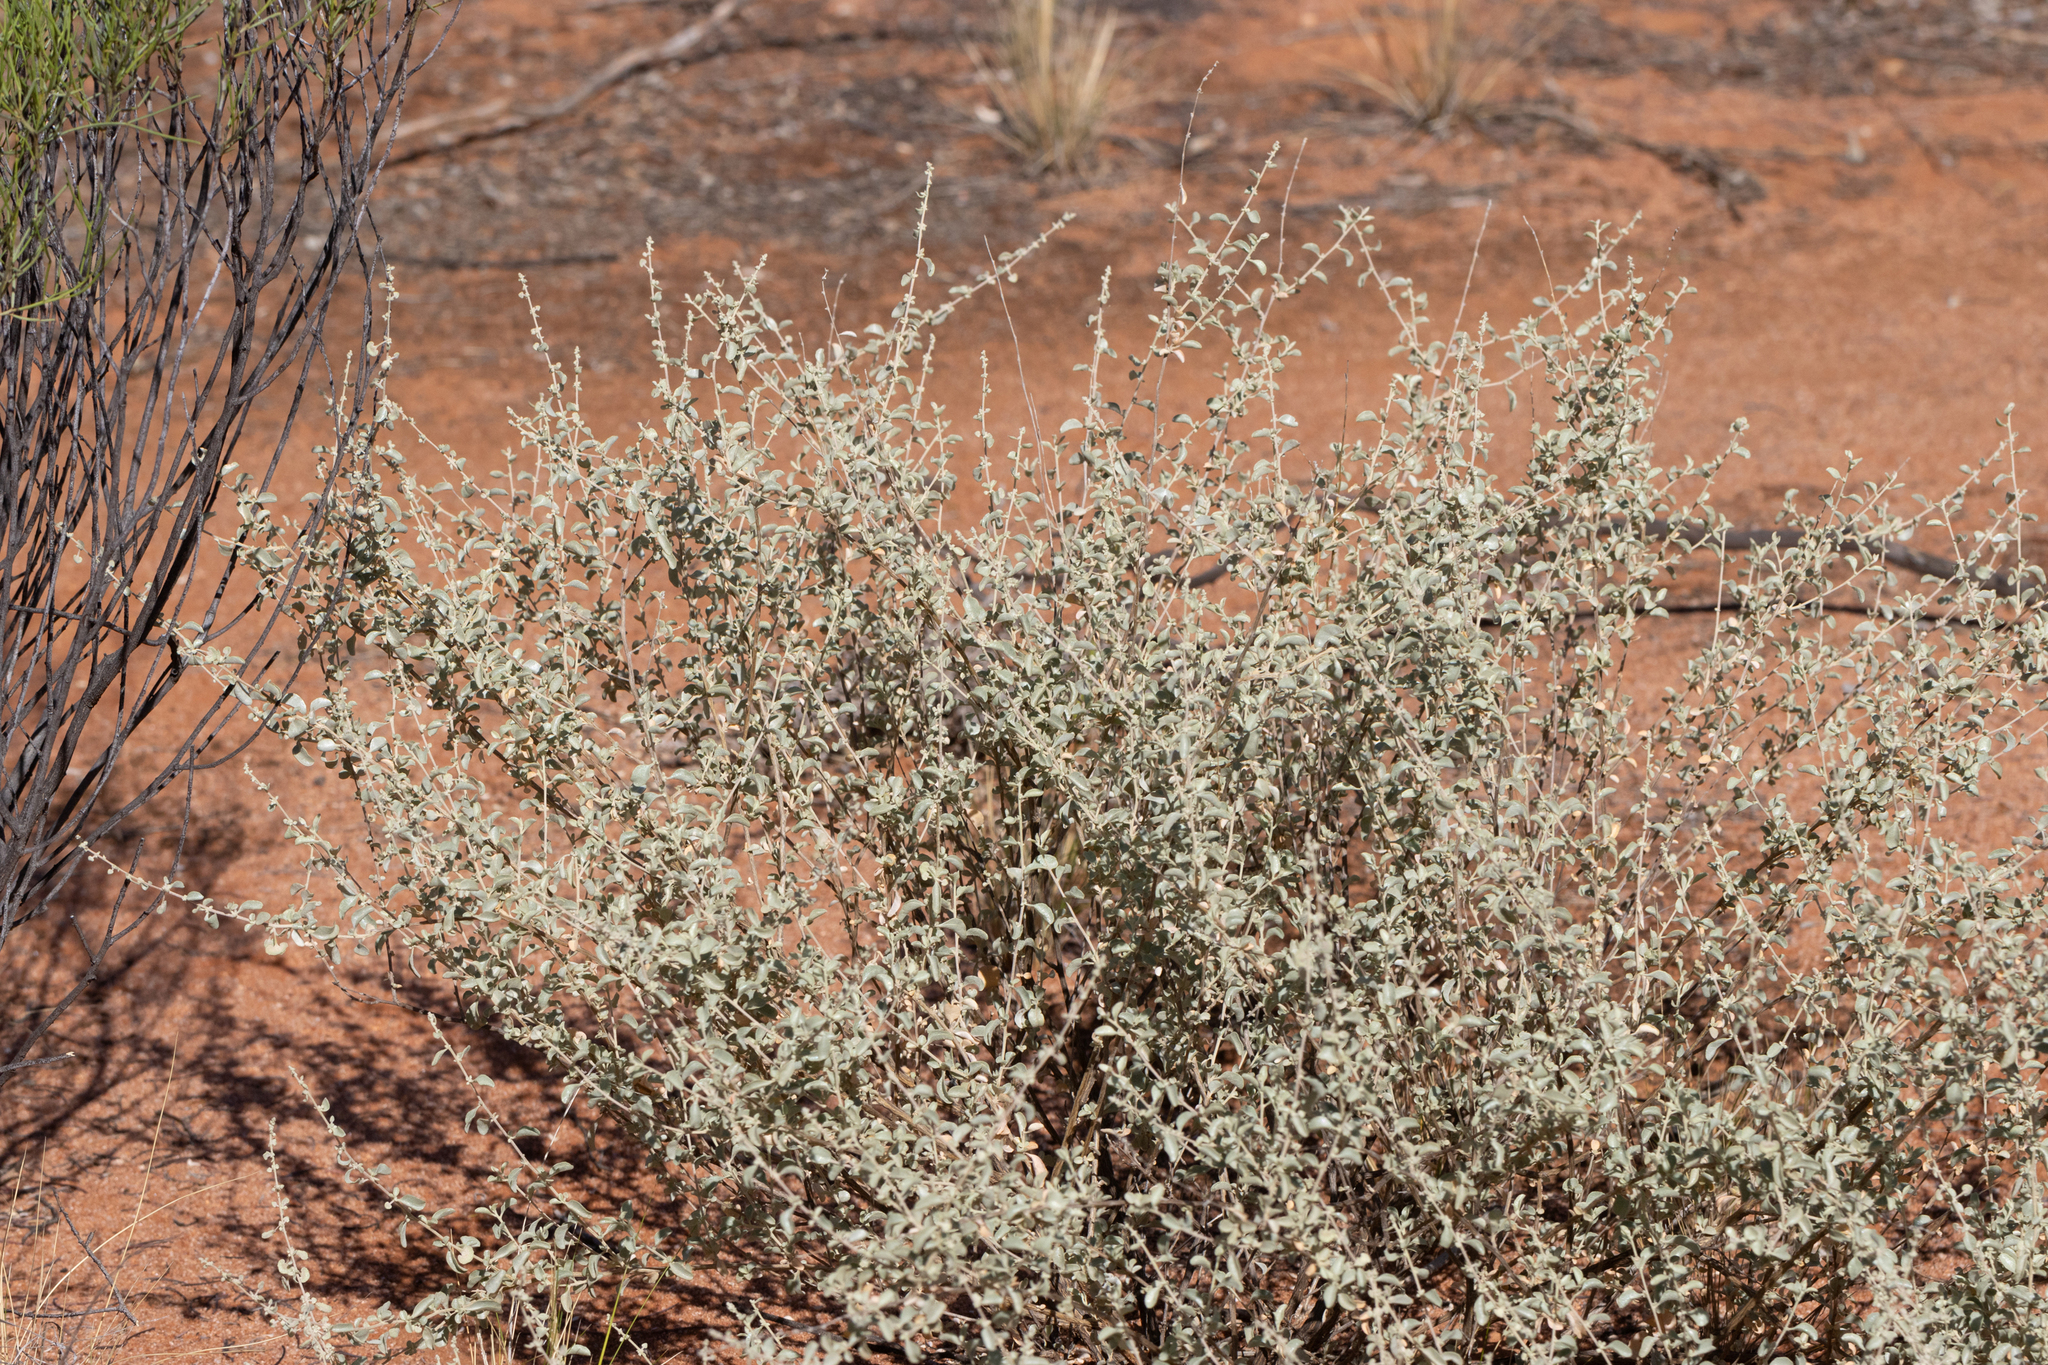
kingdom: Plantae
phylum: Tracheophyta
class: Magnoliopsida
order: Caryophyllales
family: Amaranthaceae
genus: Atriplex
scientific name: Atriplex stipitata
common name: Mallee saltbush
